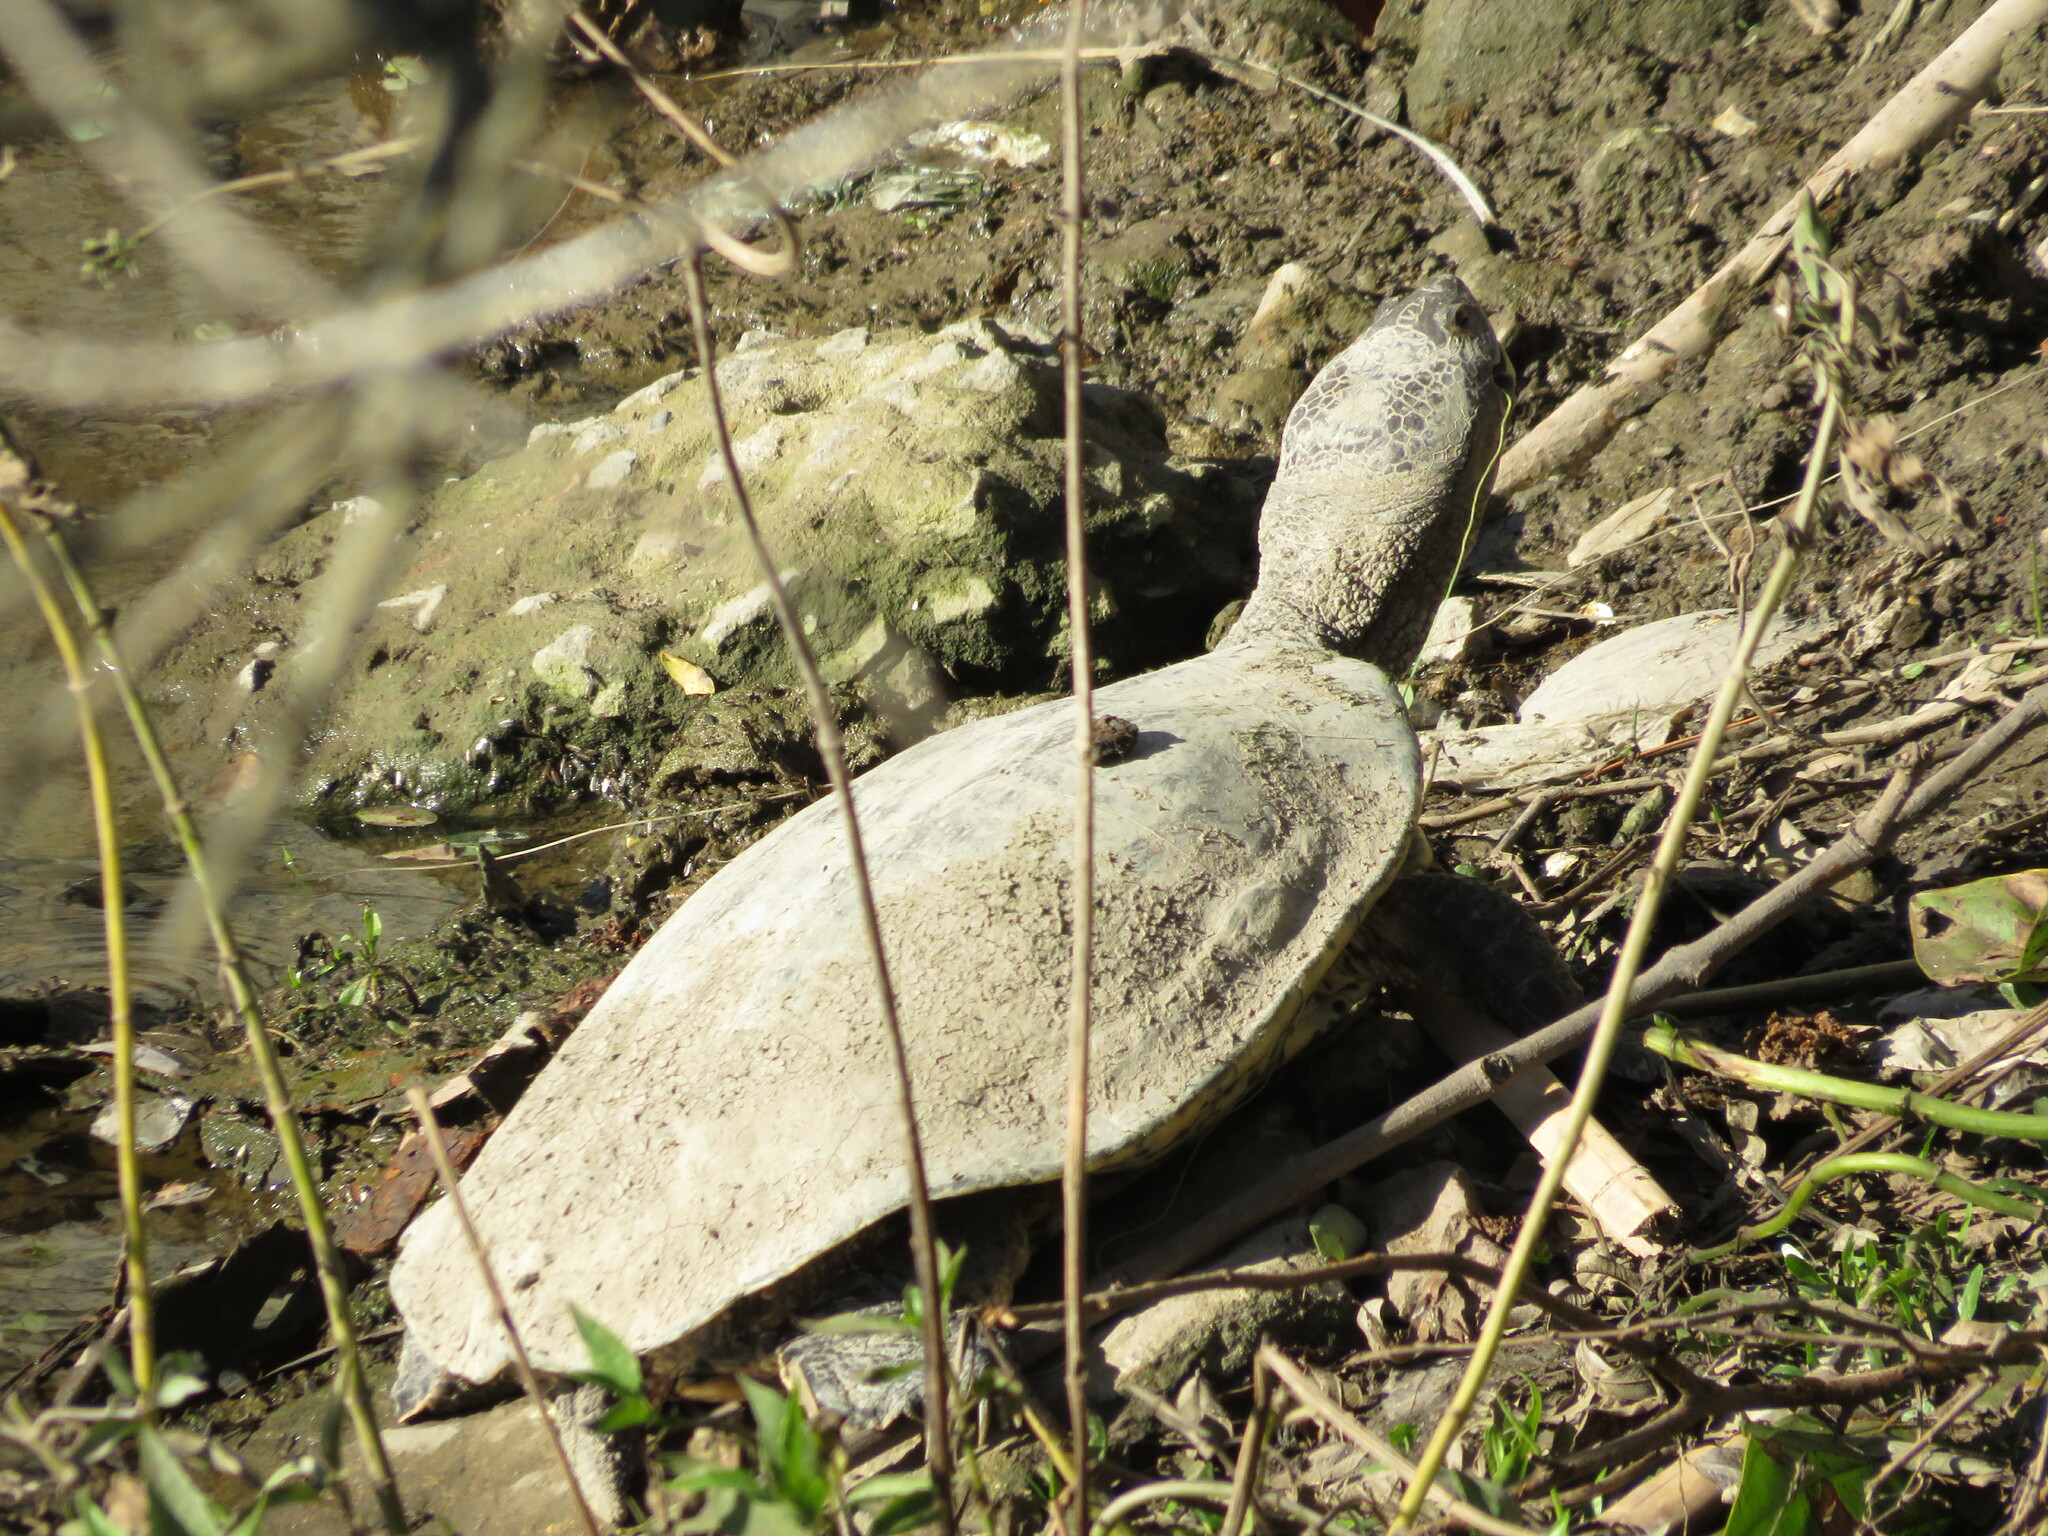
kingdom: Animalia
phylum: Chordata
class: Testudines
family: Chelidae
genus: Phrynops
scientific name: Phrynops hilarii
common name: Side-necked turtle of saint hillaire
